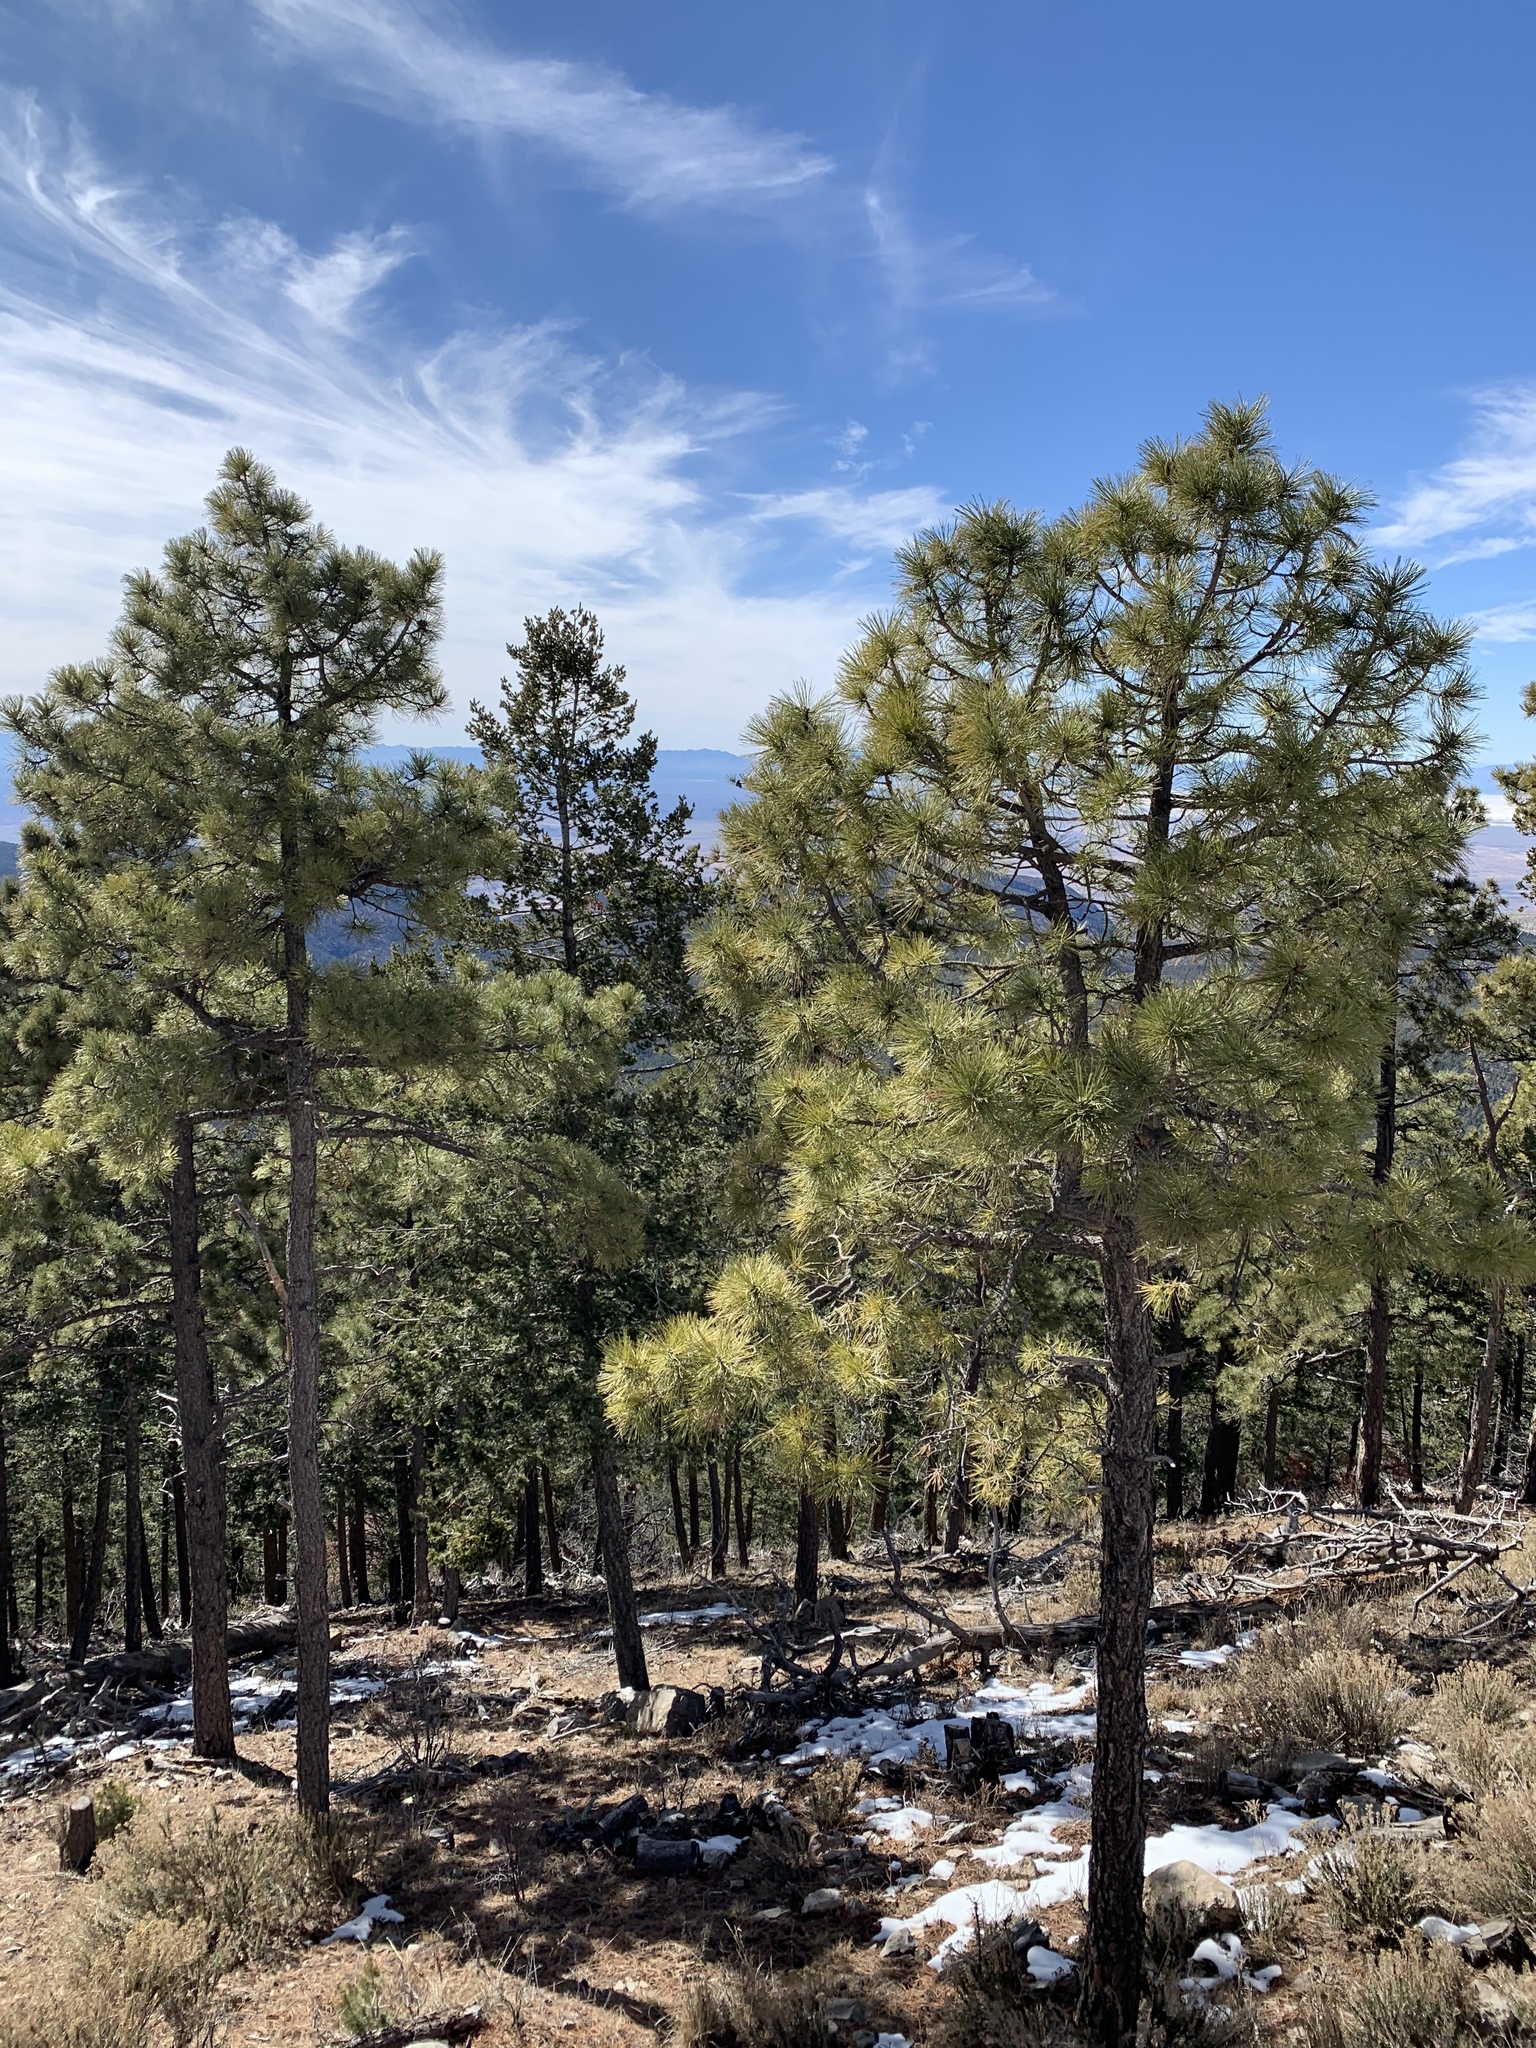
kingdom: Plantae
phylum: Tracheophyta
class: Pinopsida
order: Pinales
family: Pinaceae
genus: Pinus
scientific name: Pinus ponderosa
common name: Western yellow-pine
